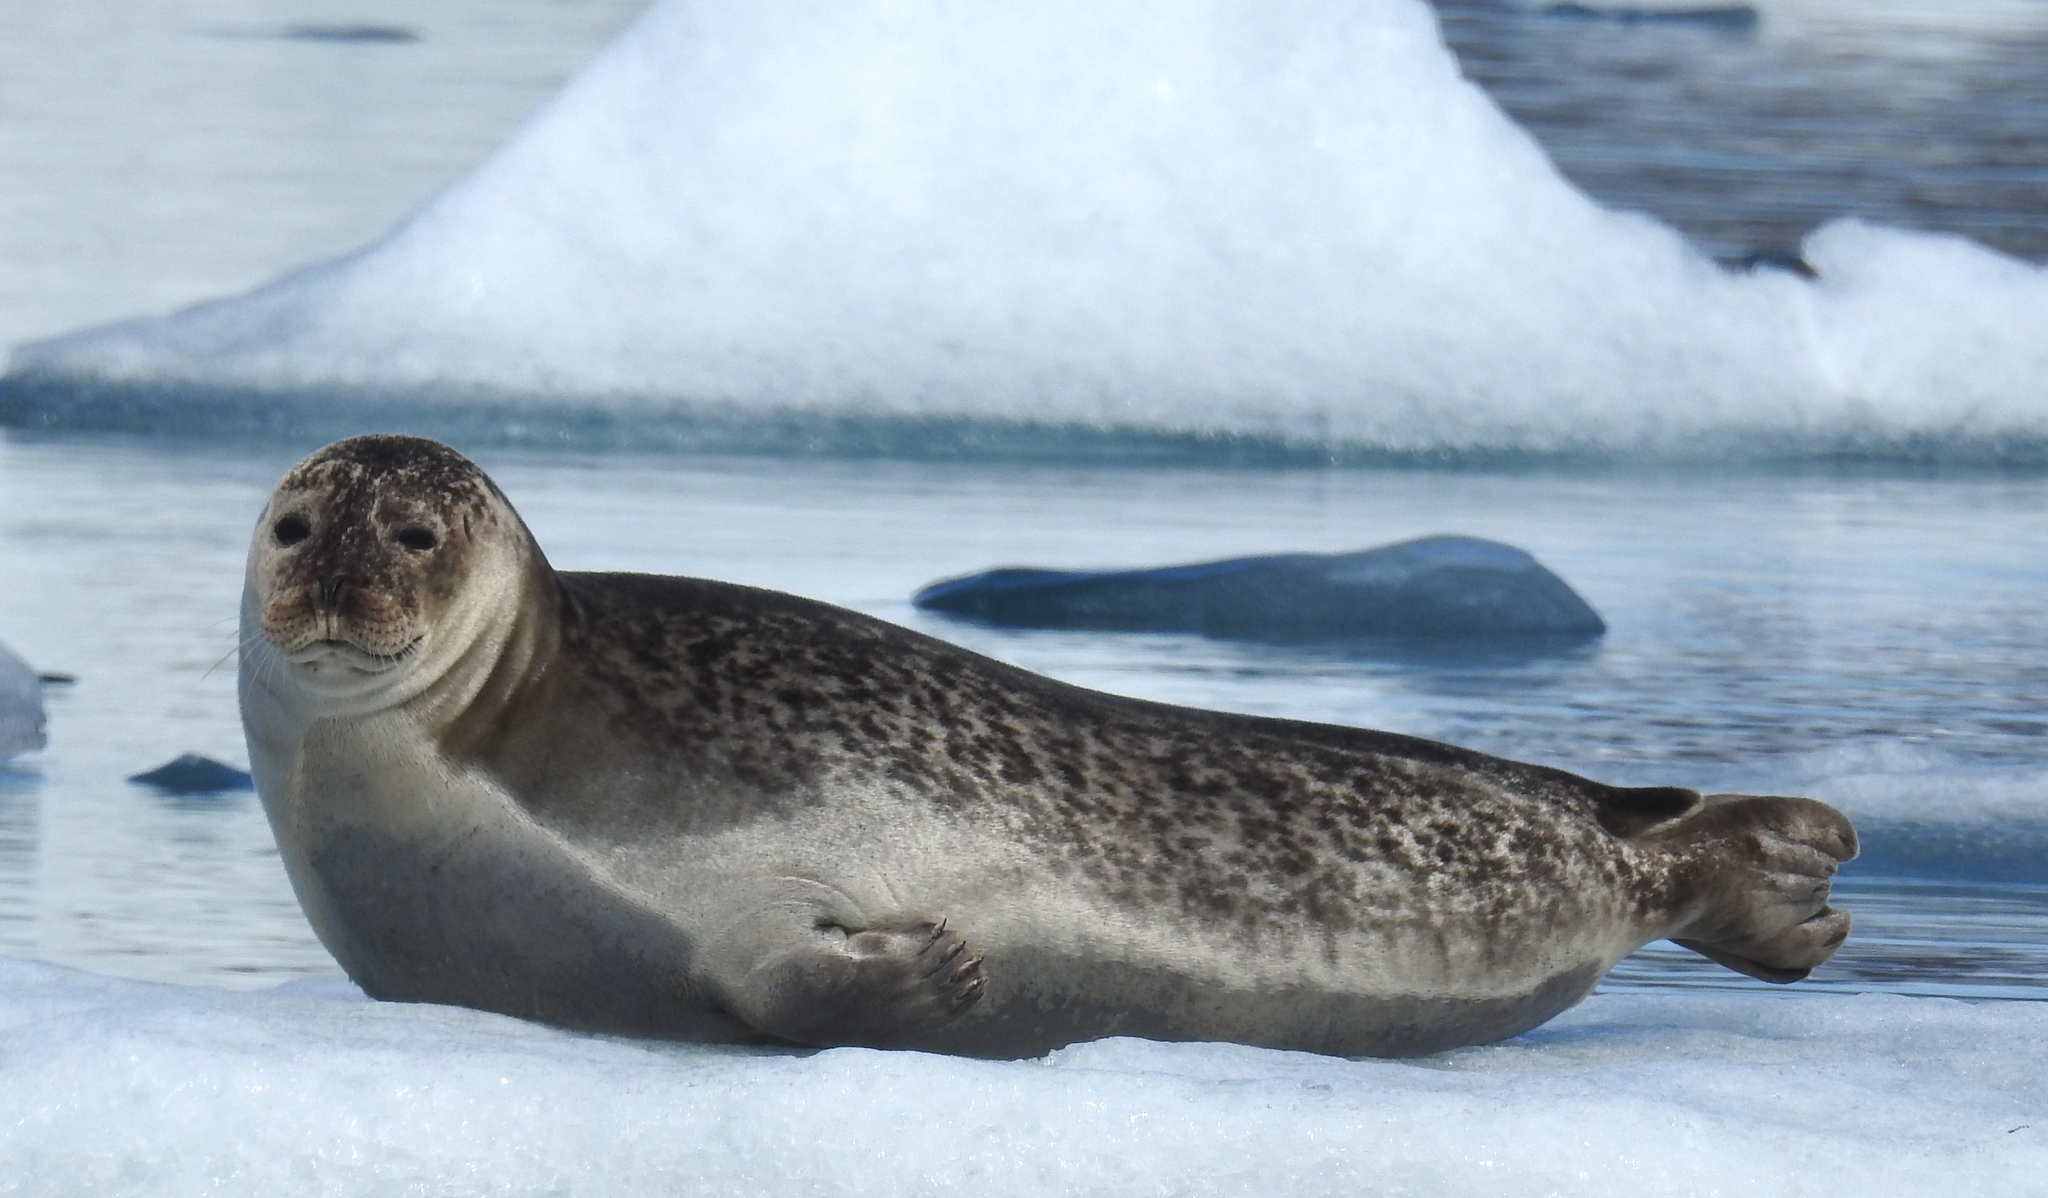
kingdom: Animalia
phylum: Chordata
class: Mammalia
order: Carnivora
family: Phocidae
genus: Phoca
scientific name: Phoca vitulina
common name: Harbor seal
